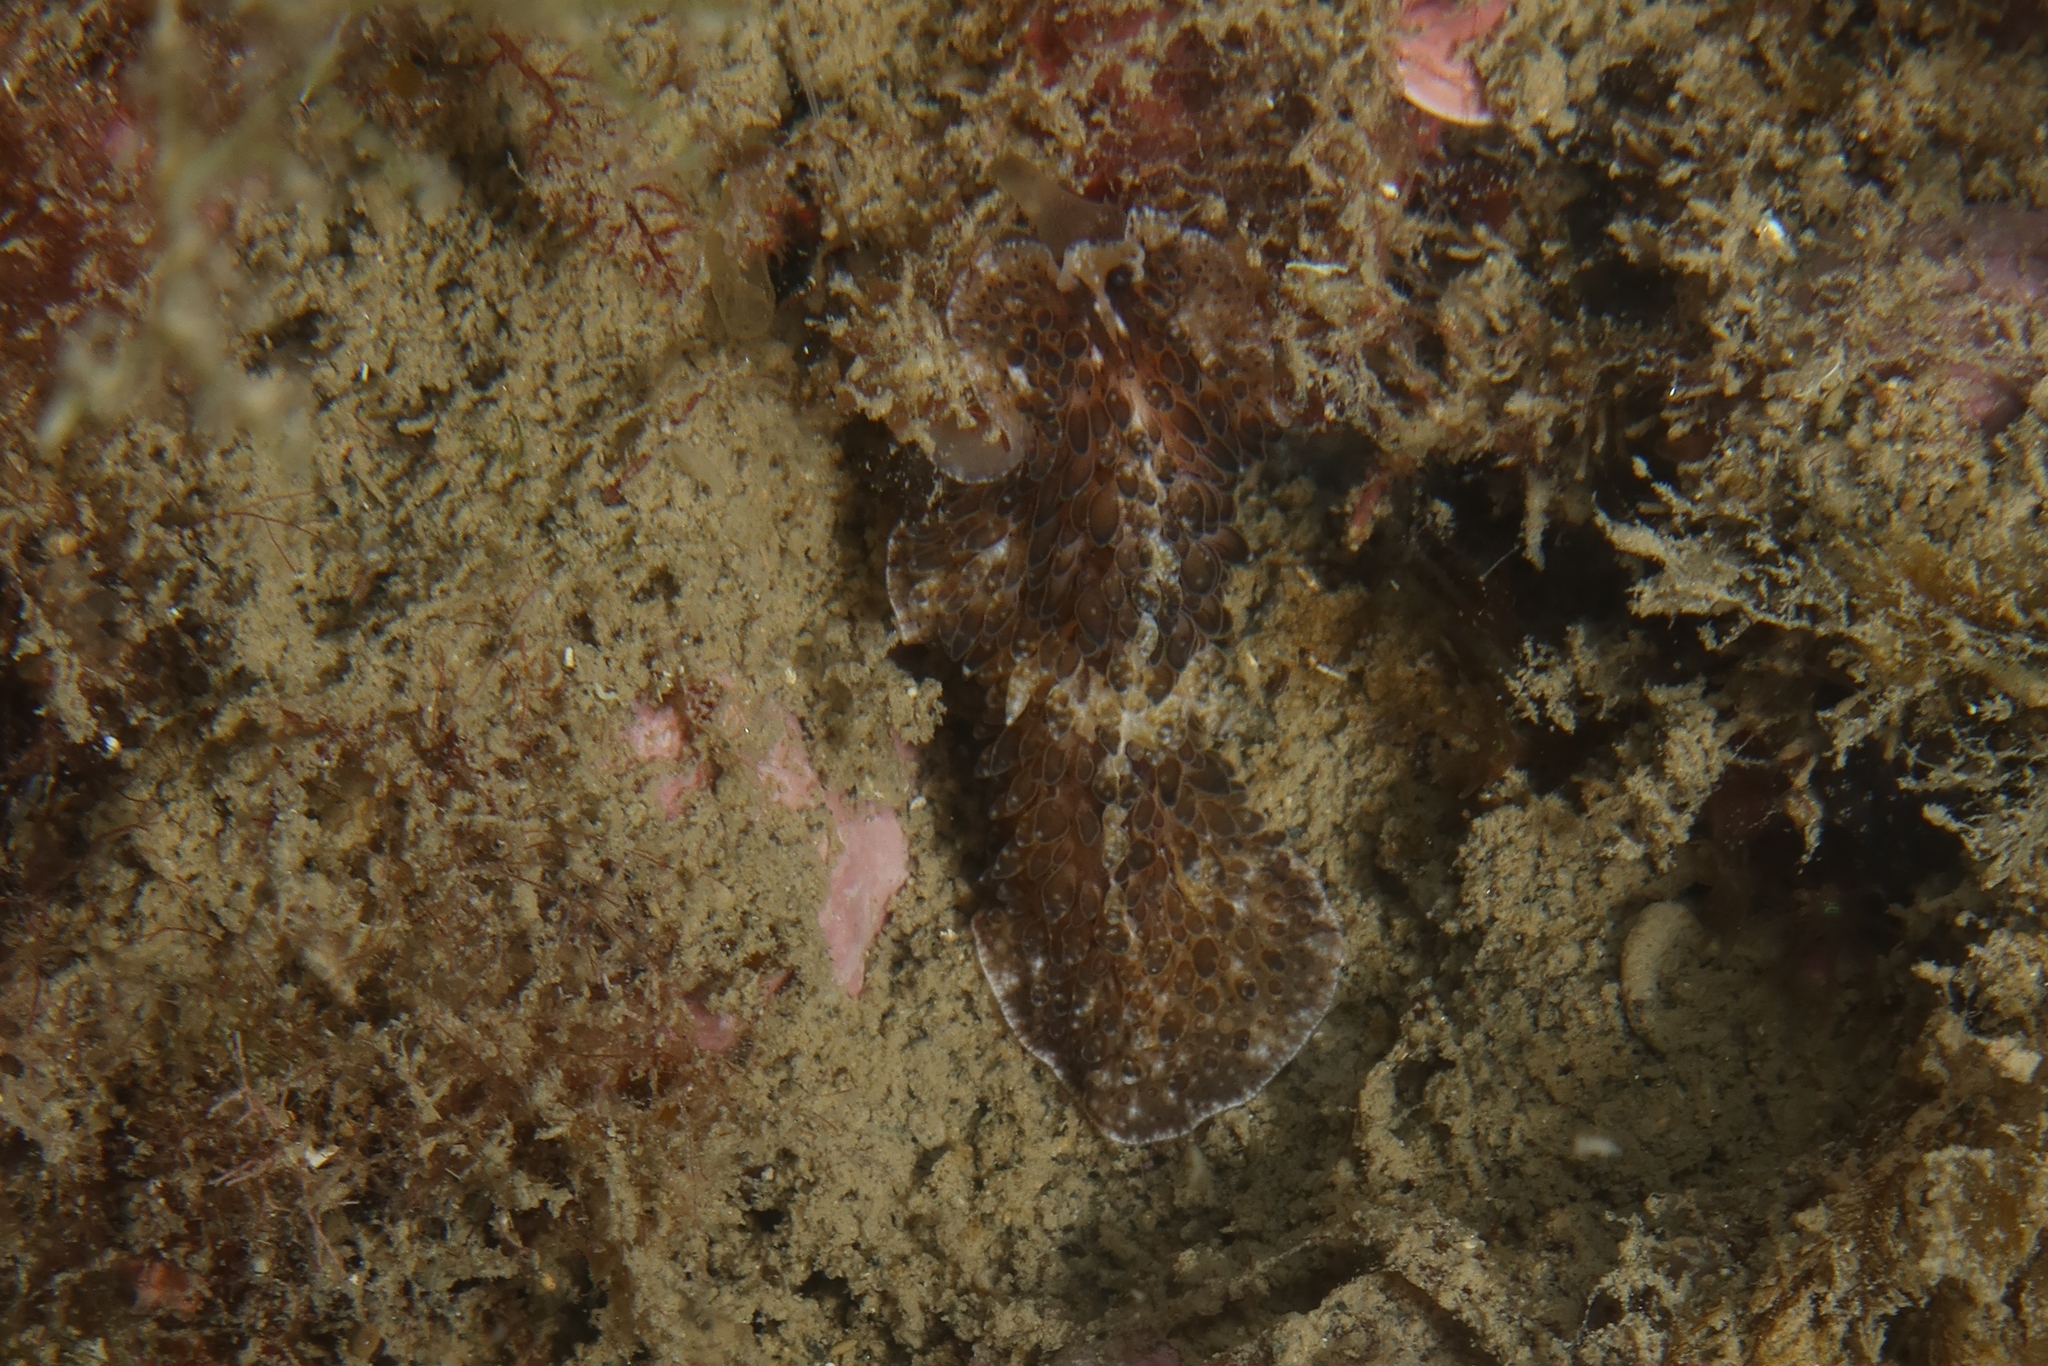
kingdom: Animalia
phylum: Platyhelminthes
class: Turbellaria
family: Pseudocerotidae
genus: Thysanozoon
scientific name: Thysanozoon brocchii
